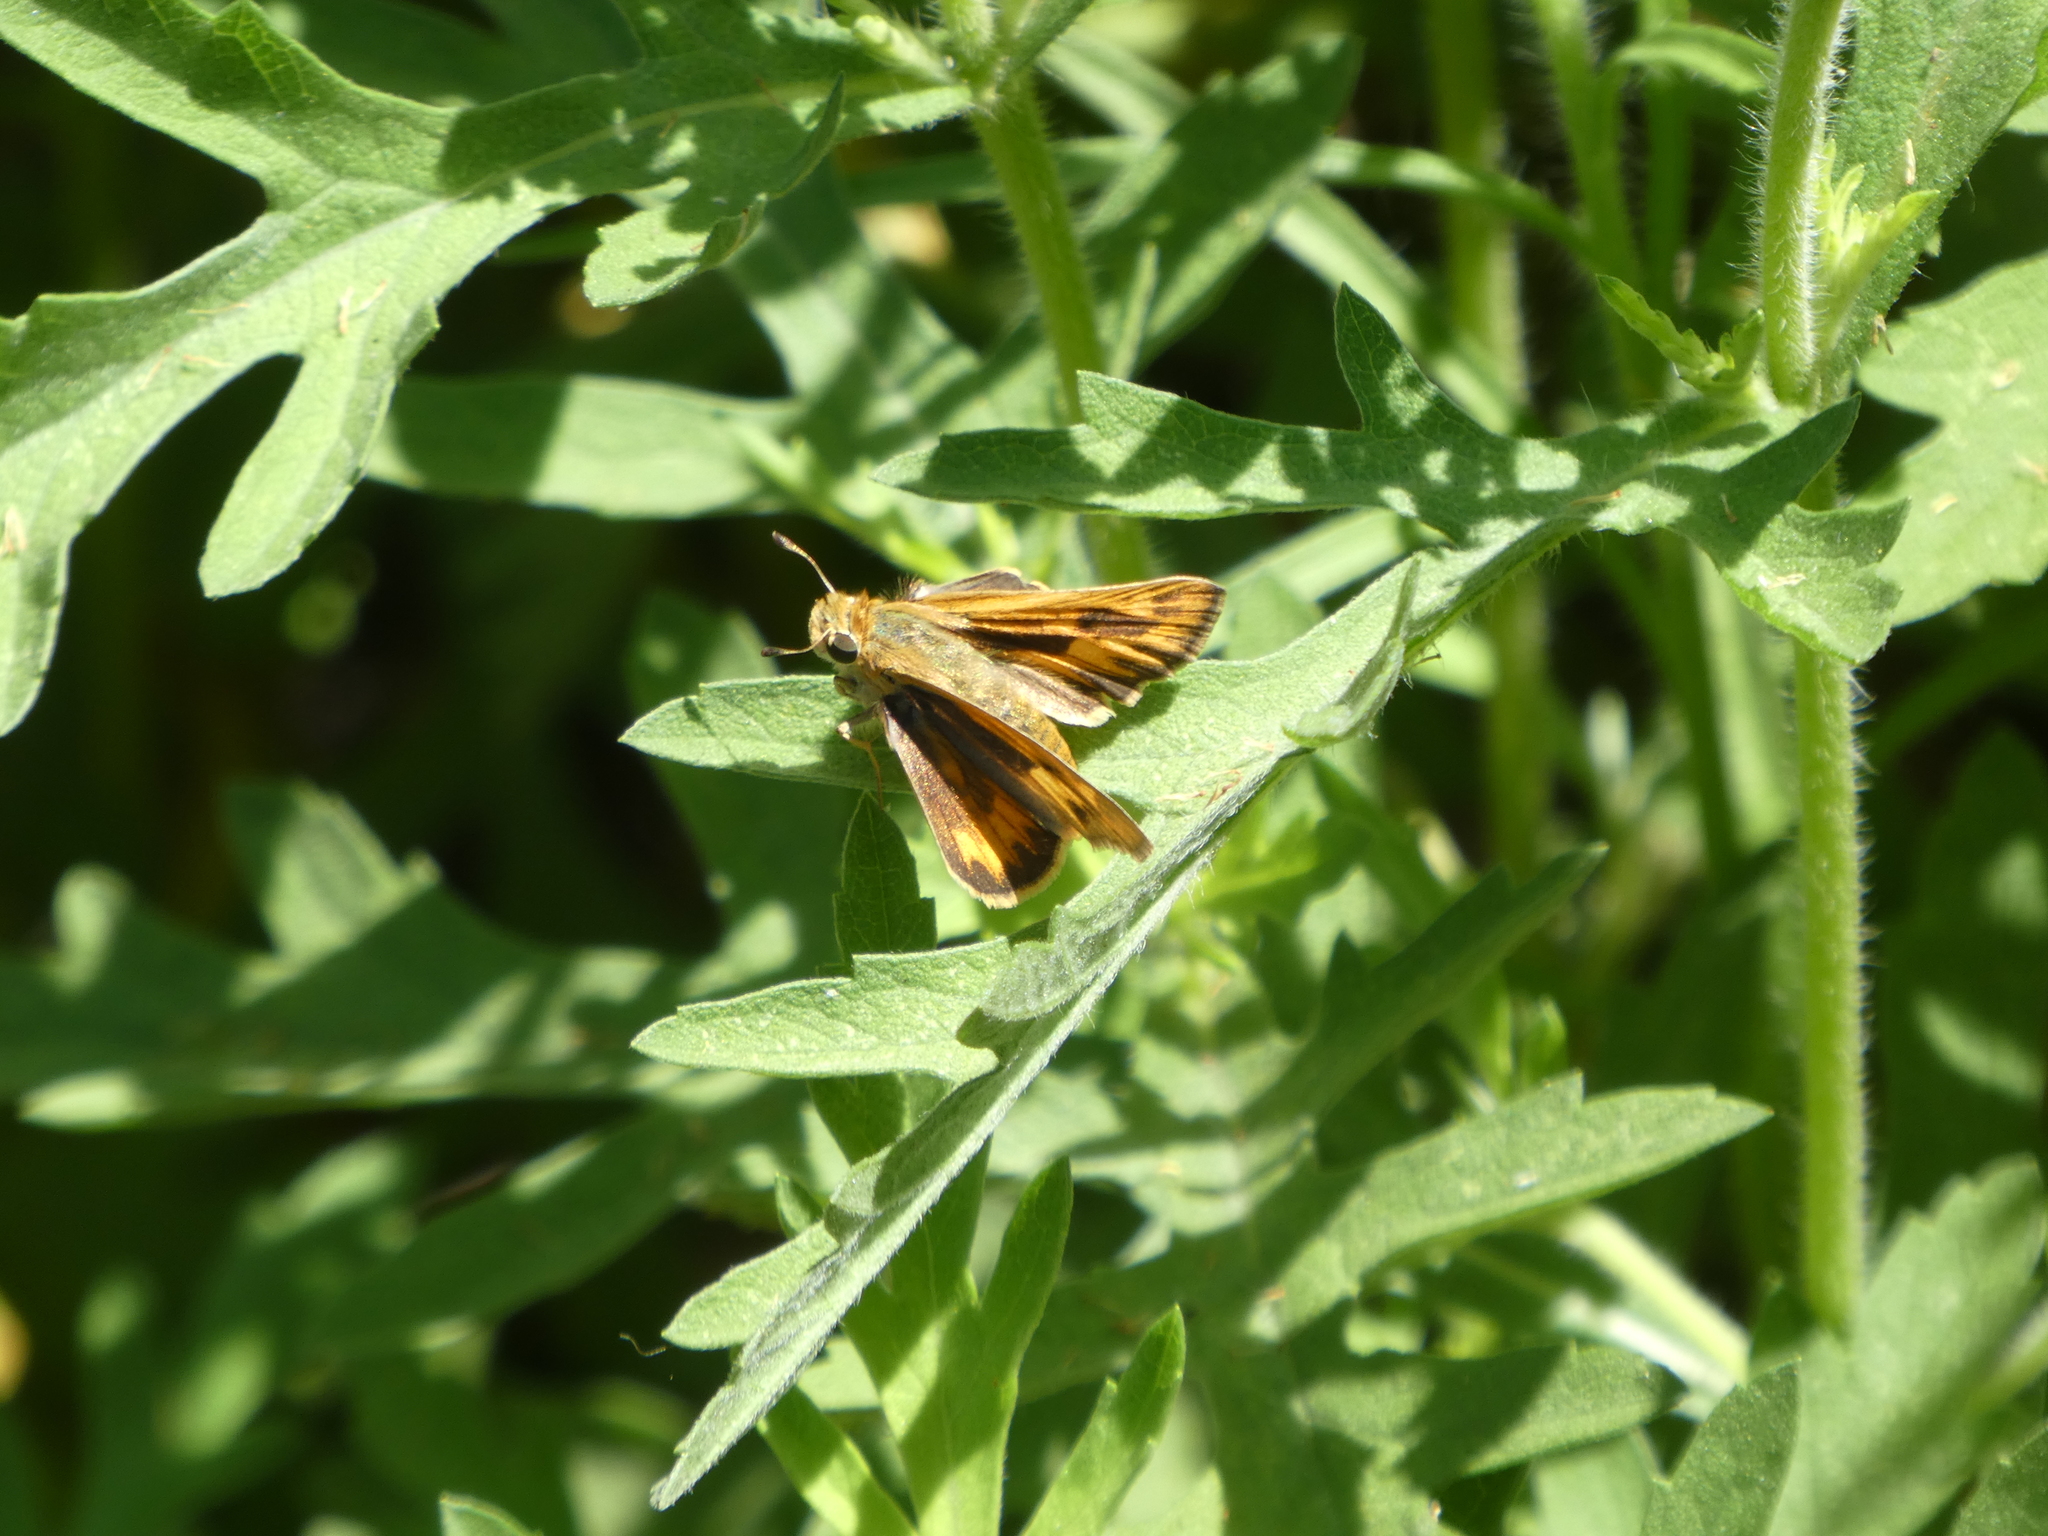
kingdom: Animalia
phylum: Arthropoda
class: Insecta
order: Lepidoptera
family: Hesperiidae
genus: Hylephila
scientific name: Hylephila phyleus
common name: Fiery skipper
